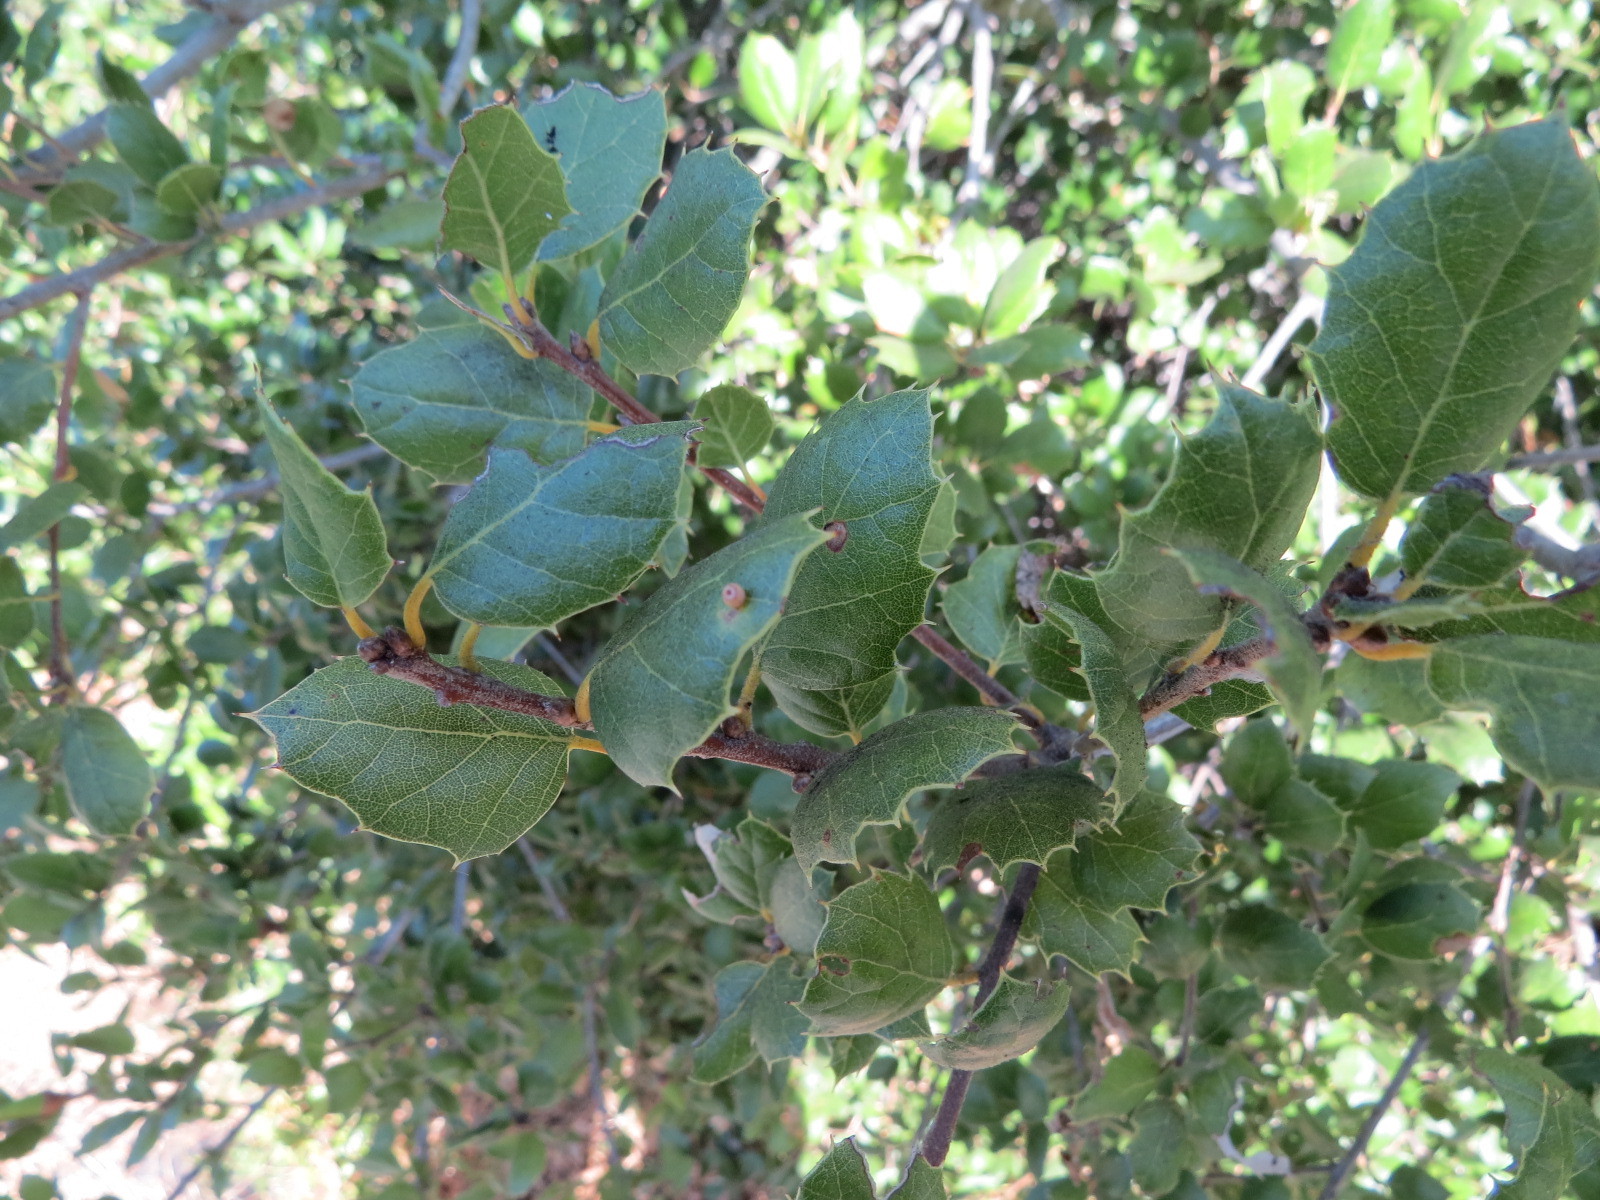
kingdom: Animalia
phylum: Arthropoda
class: Insecta
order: Hymenoptera
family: Cynipidae
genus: Dryocosmus
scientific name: Dryocosmus
